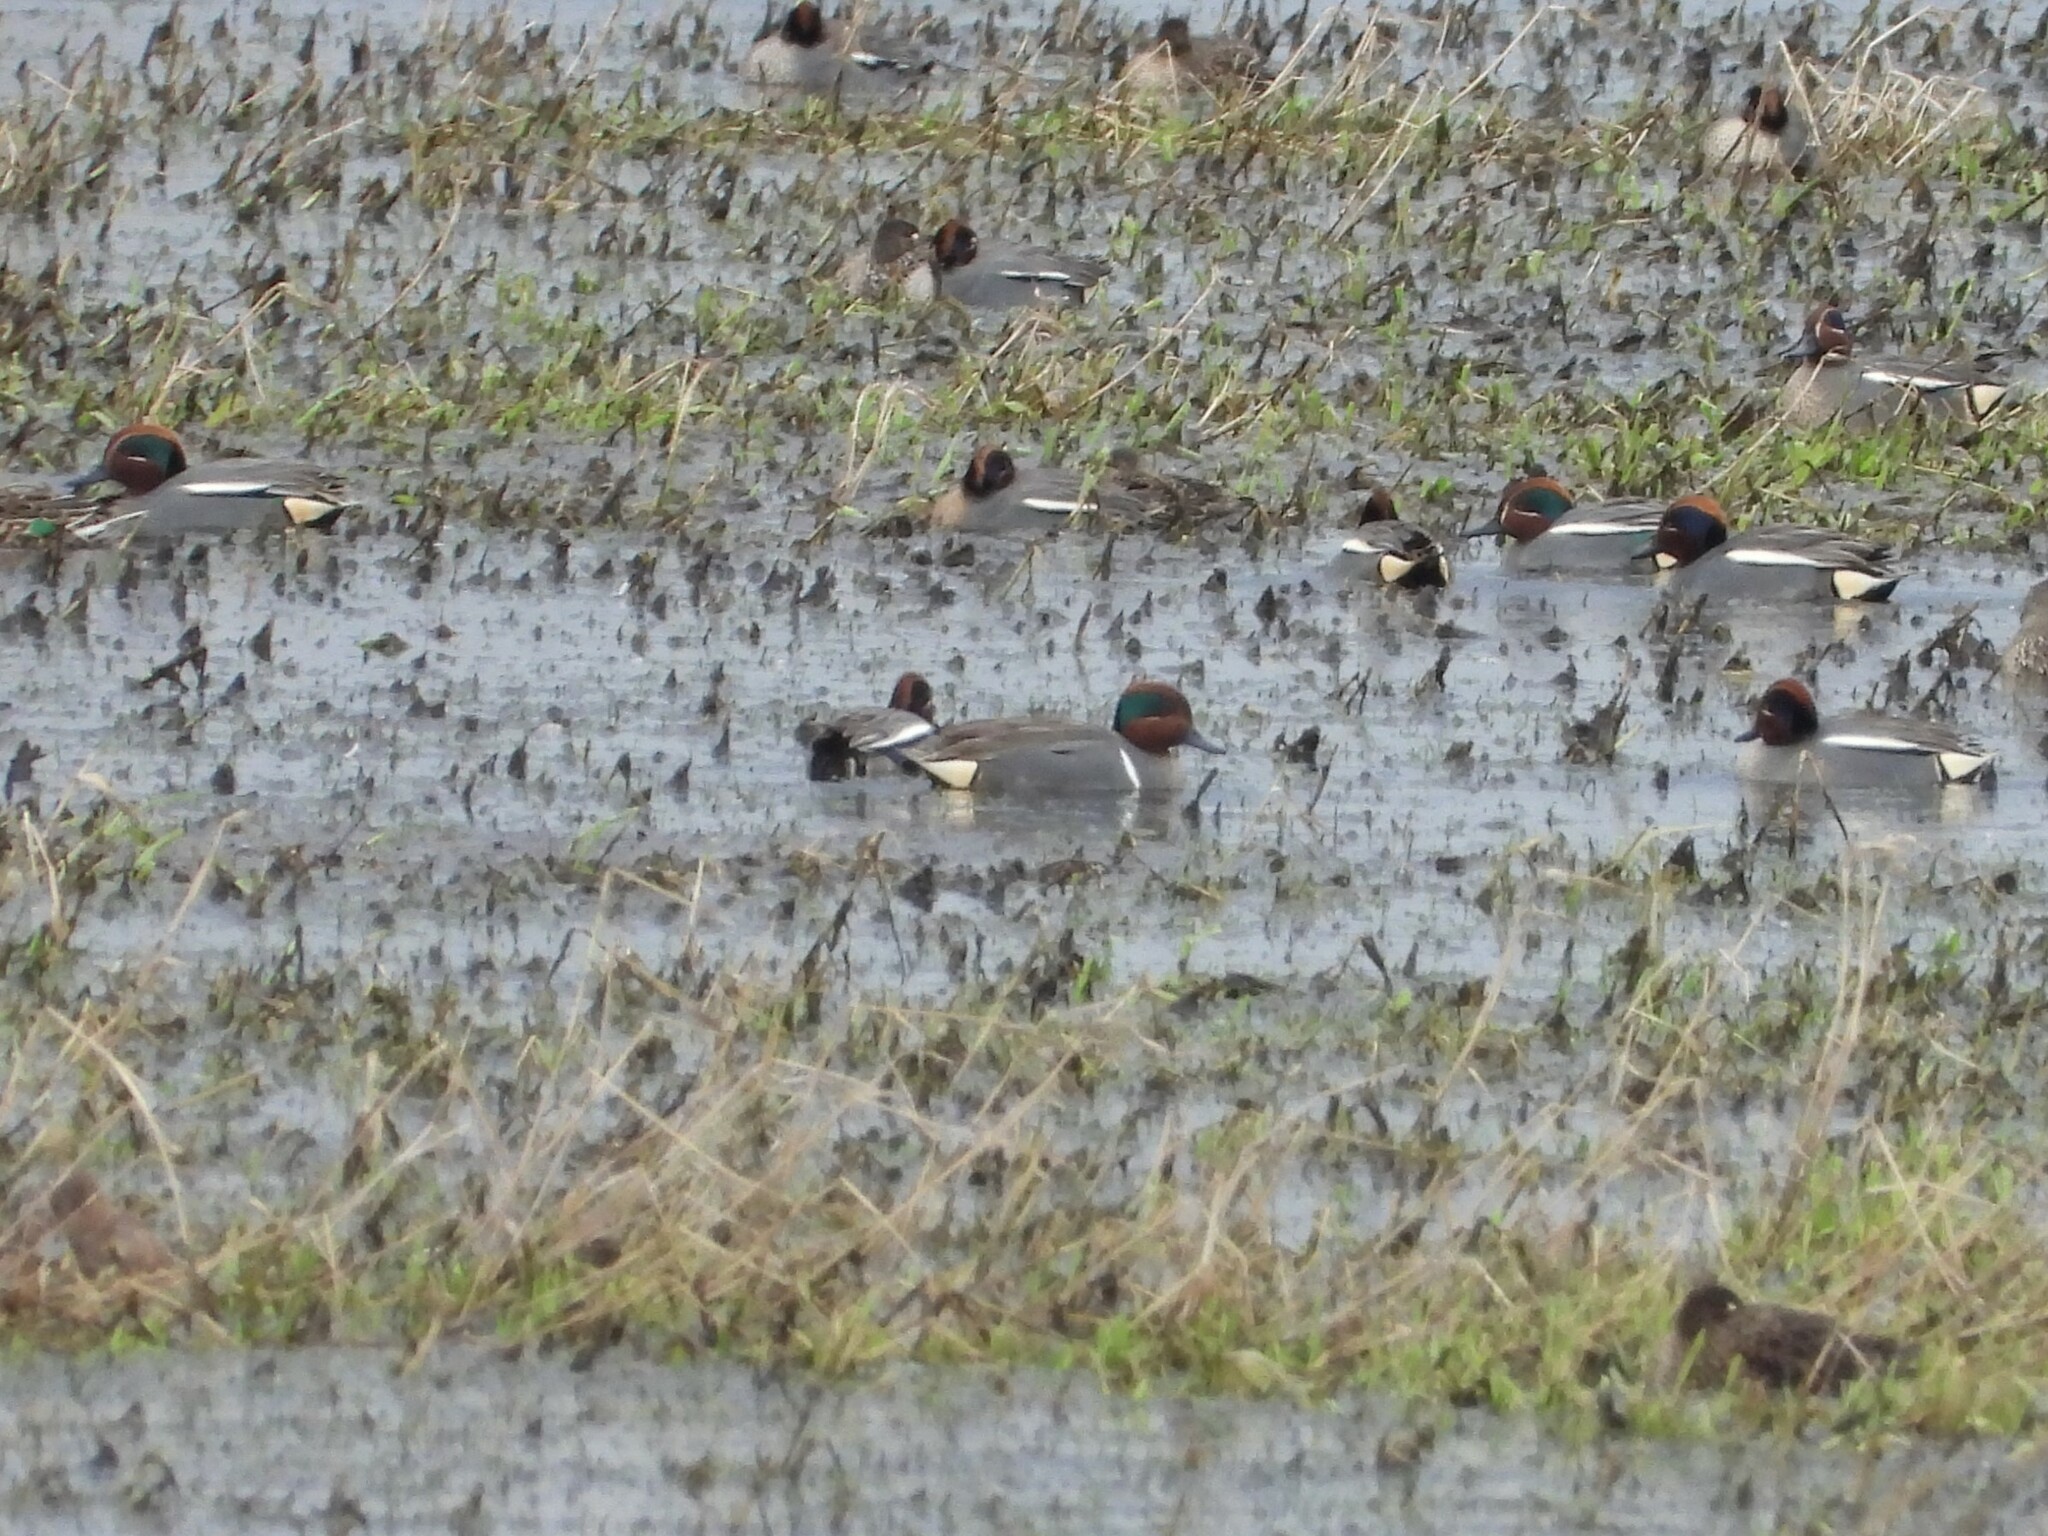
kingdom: Animalia
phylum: Chordata
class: Aves
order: Anseriformes
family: Anatidae
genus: Anas
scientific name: Anas carolinensis
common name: Green-winged teal
